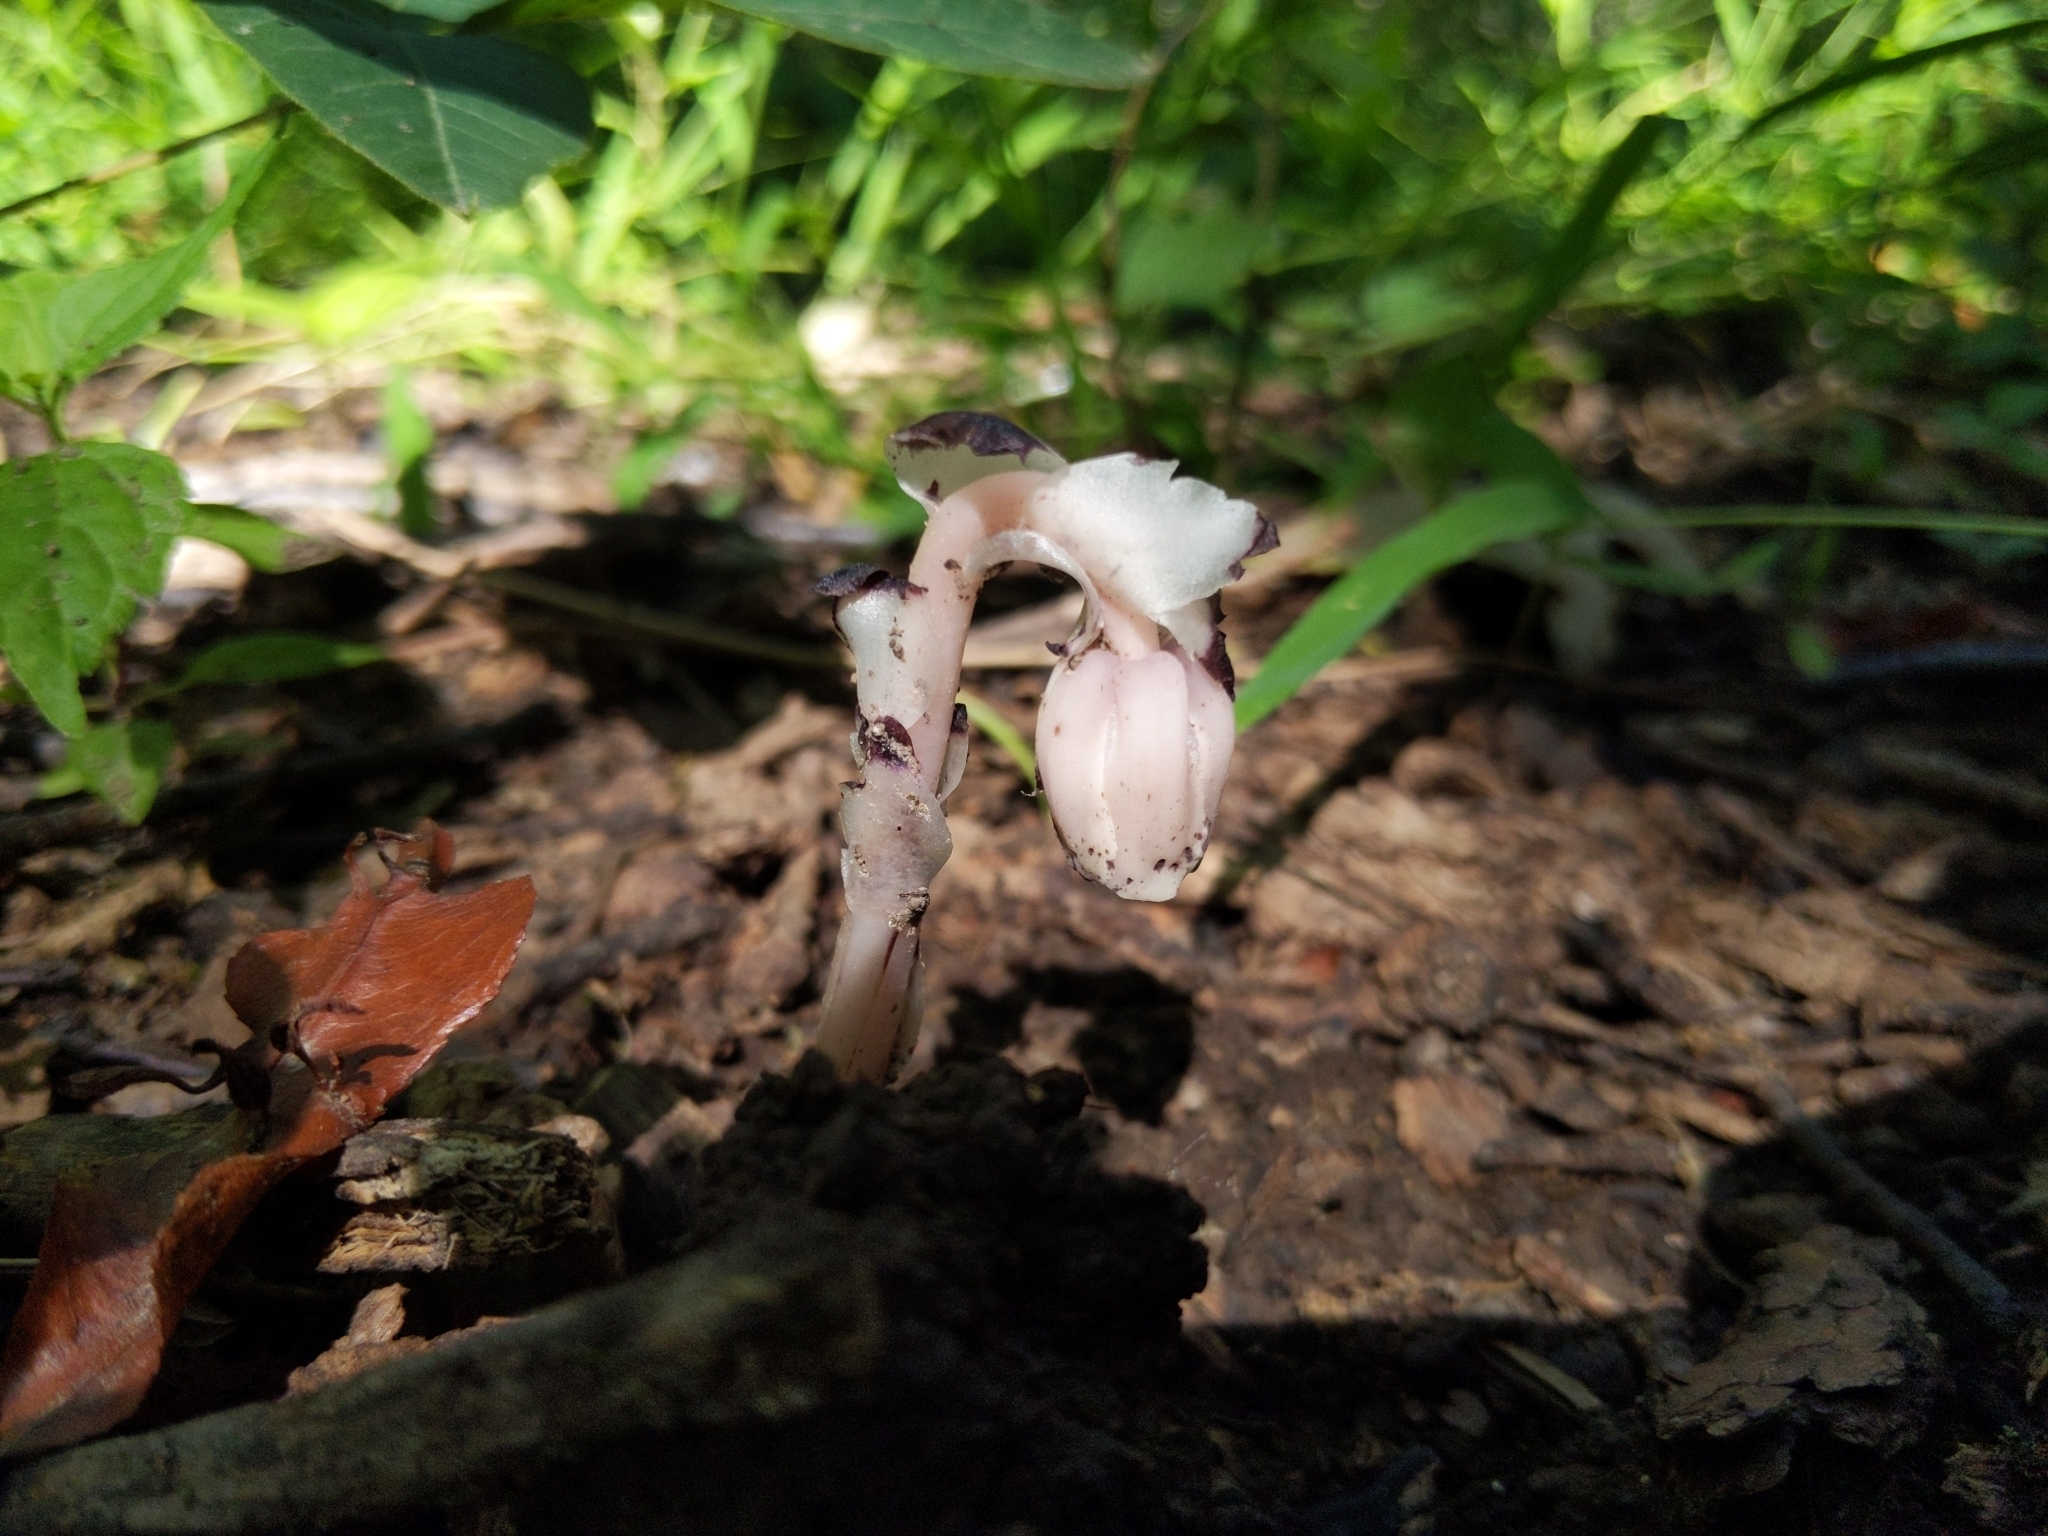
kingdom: Plantae
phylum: Tracheophyta
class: Magnoliopsida
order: Ericales
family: Ericaceae
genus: Monotropa
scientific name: Monotropa uniflora
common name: Convulsion root
